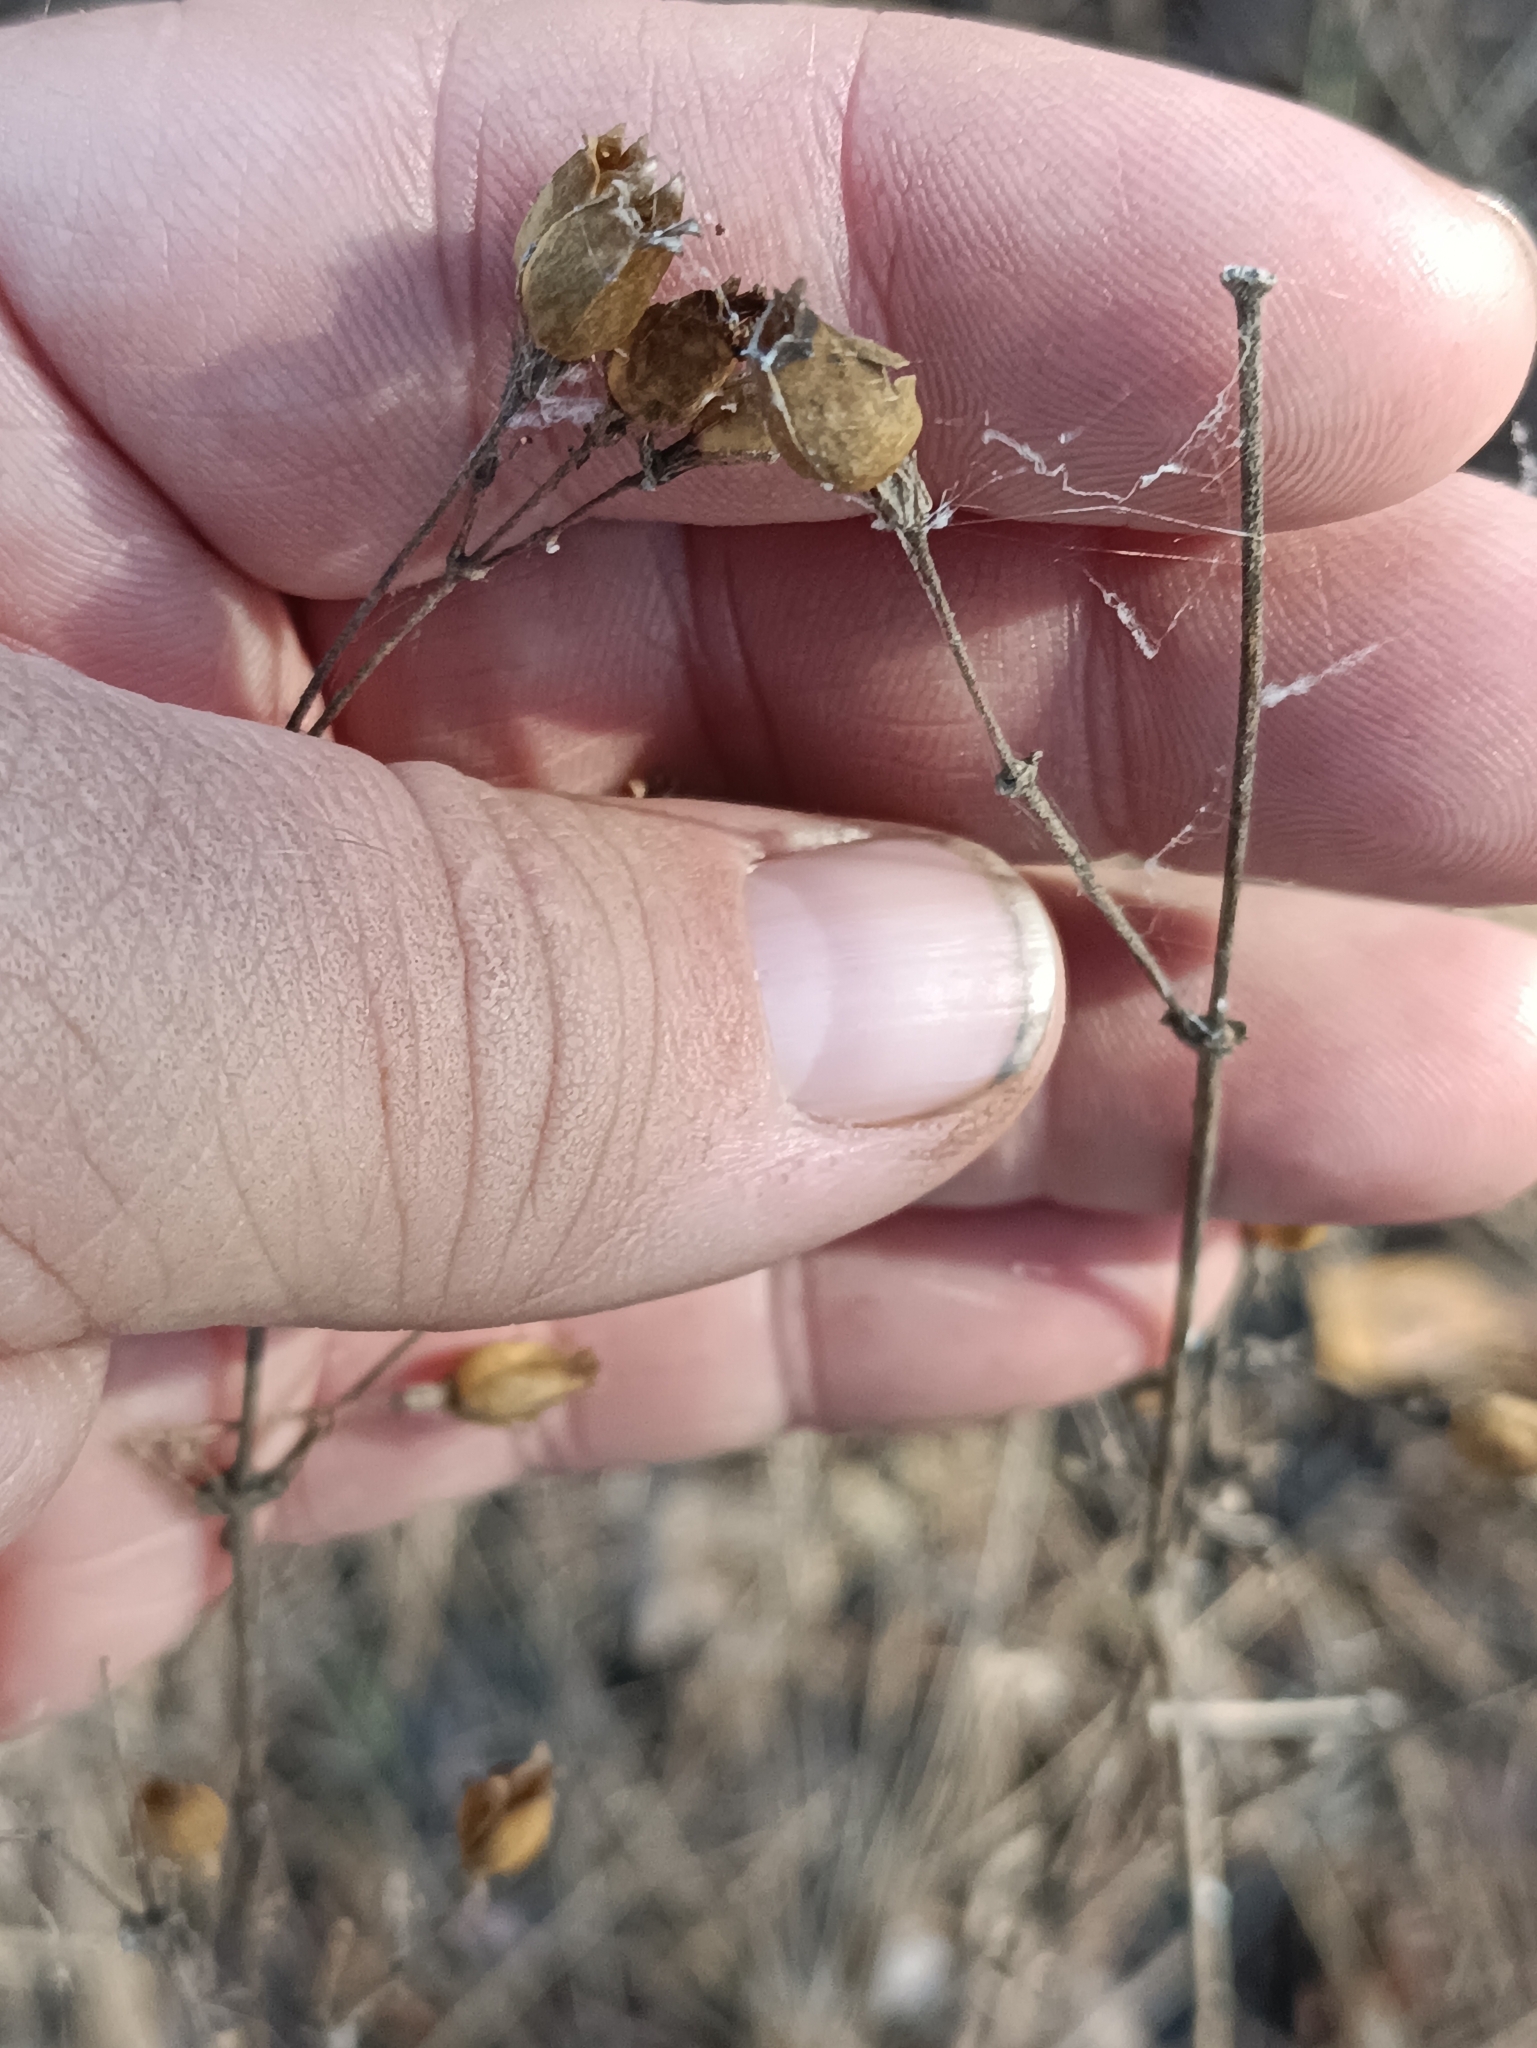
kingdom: Plantae
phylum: Tracheophyta
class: Magnoliopsida
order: Caryophyllales
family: Caryophyllaceae
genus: Silene
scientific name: Silene nutans
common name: Nottingham catchfly
